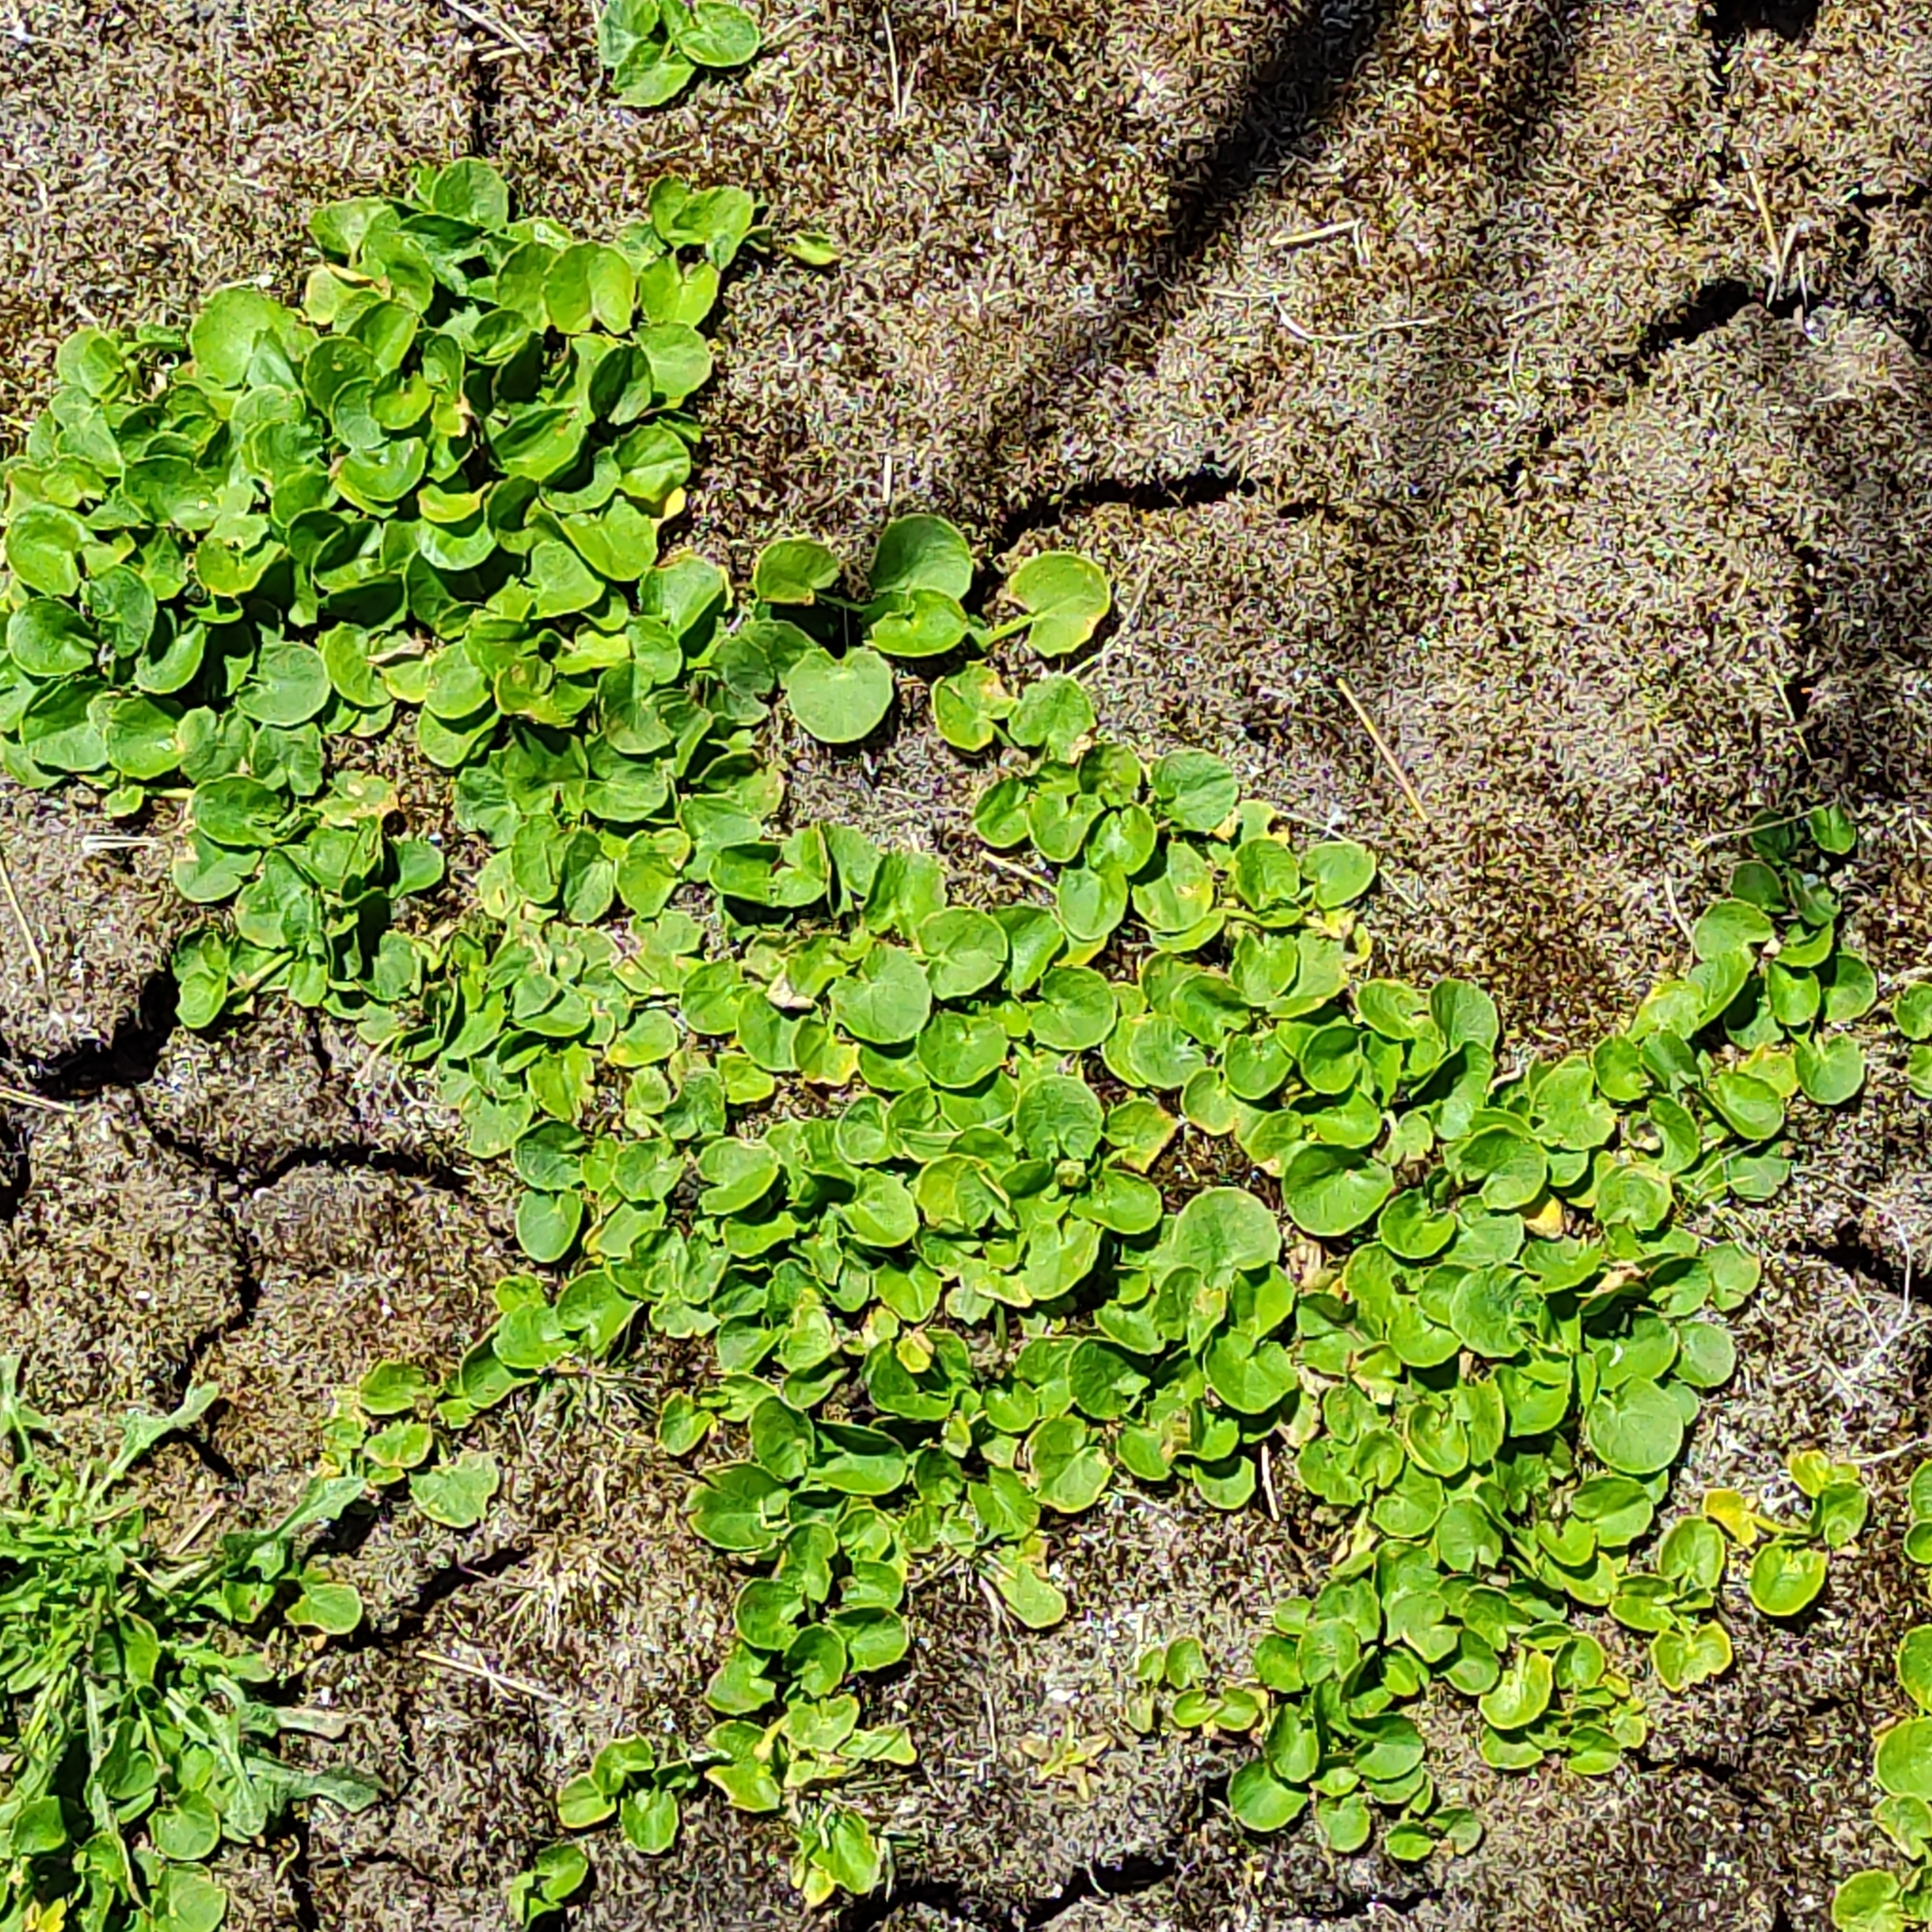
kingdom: Plantae
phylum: Tracheophyta
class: Magnoliopsida
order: Apiales
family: Apiaceae
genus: Centella
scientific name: Centella uniflora
